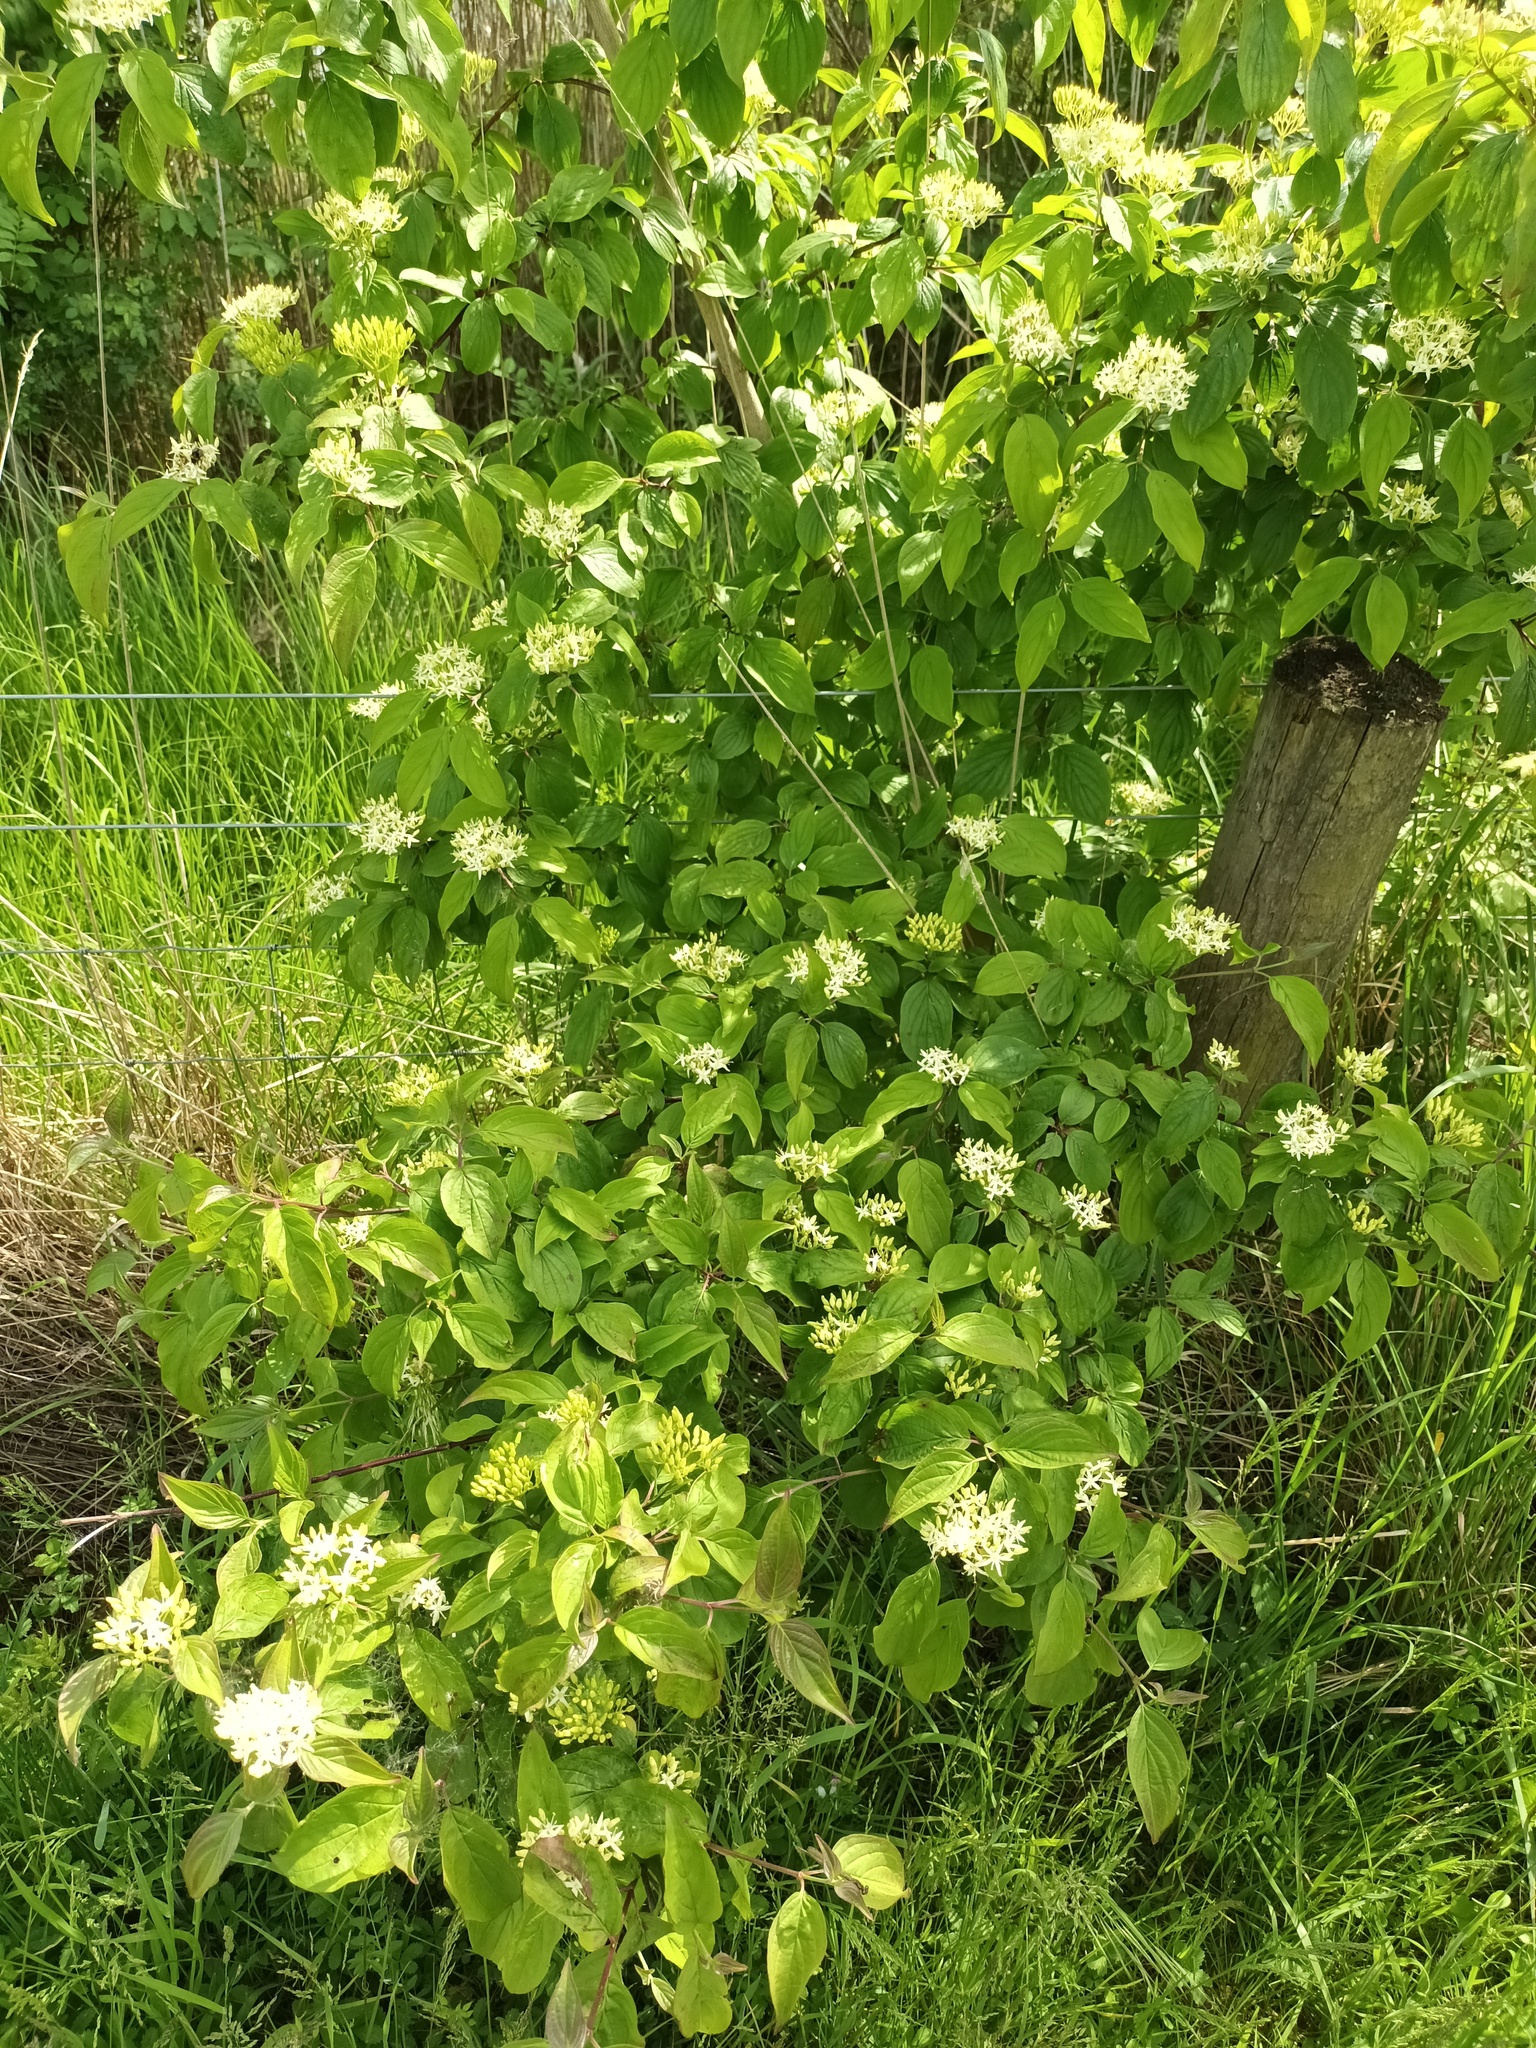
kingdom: Plantae
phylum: Tracheophyta
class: Magnoliopsida
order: Cornales
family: Cornaceae
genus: Cornus
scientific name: Cornus sanguinea
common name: Dogwood
